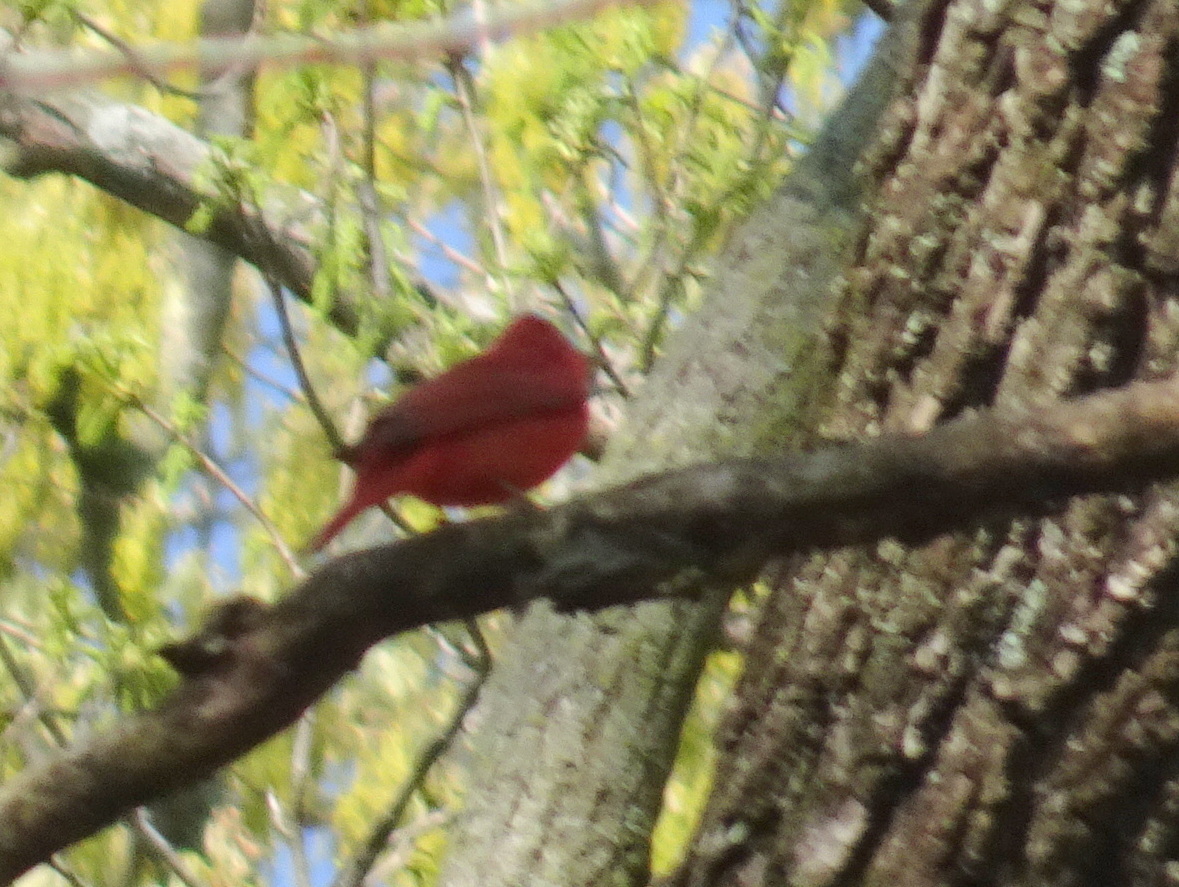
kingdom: Animalia
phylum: Chordata
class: Aves
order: Passeriformes
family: Cardinalidae
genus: Piranga
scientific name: Piranga rubra
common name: Summer tanager
